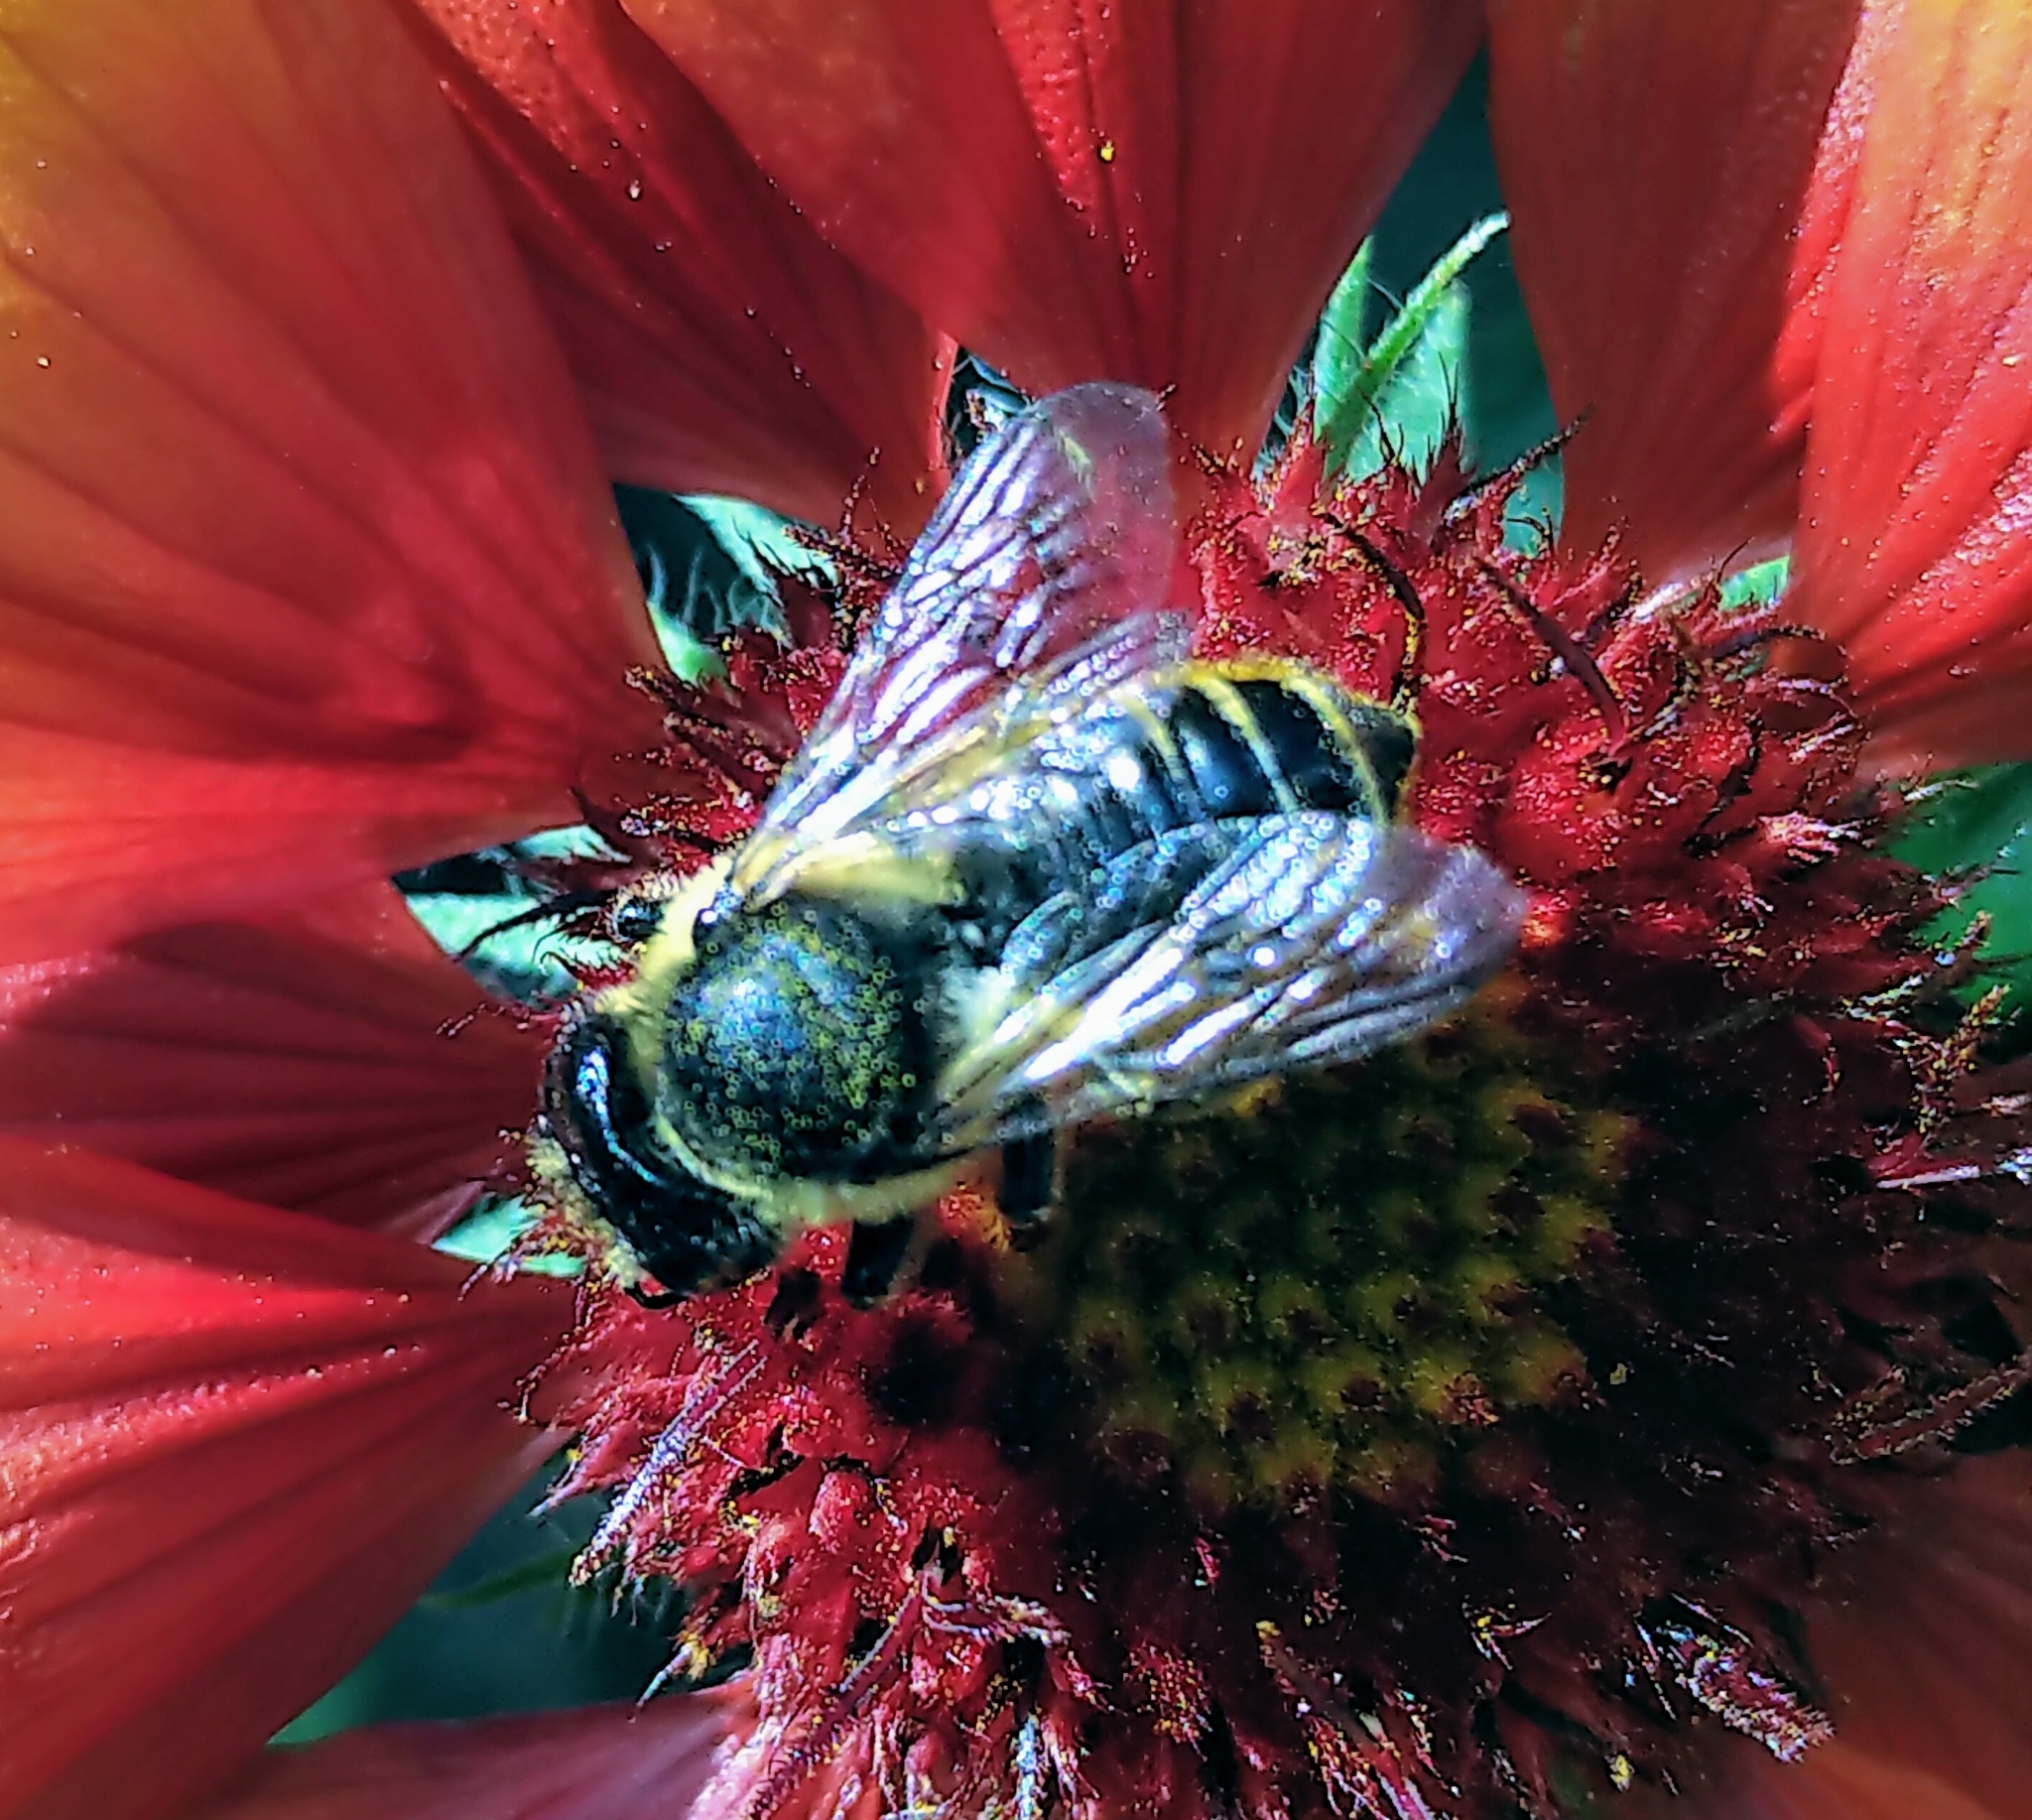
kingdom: Animalia
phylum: Arthropoda
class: Insecta
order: Hymenoptera
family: Megachilidae
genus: Megachile
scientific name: Megachile inermis
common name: Unarmed leafcutter bee
